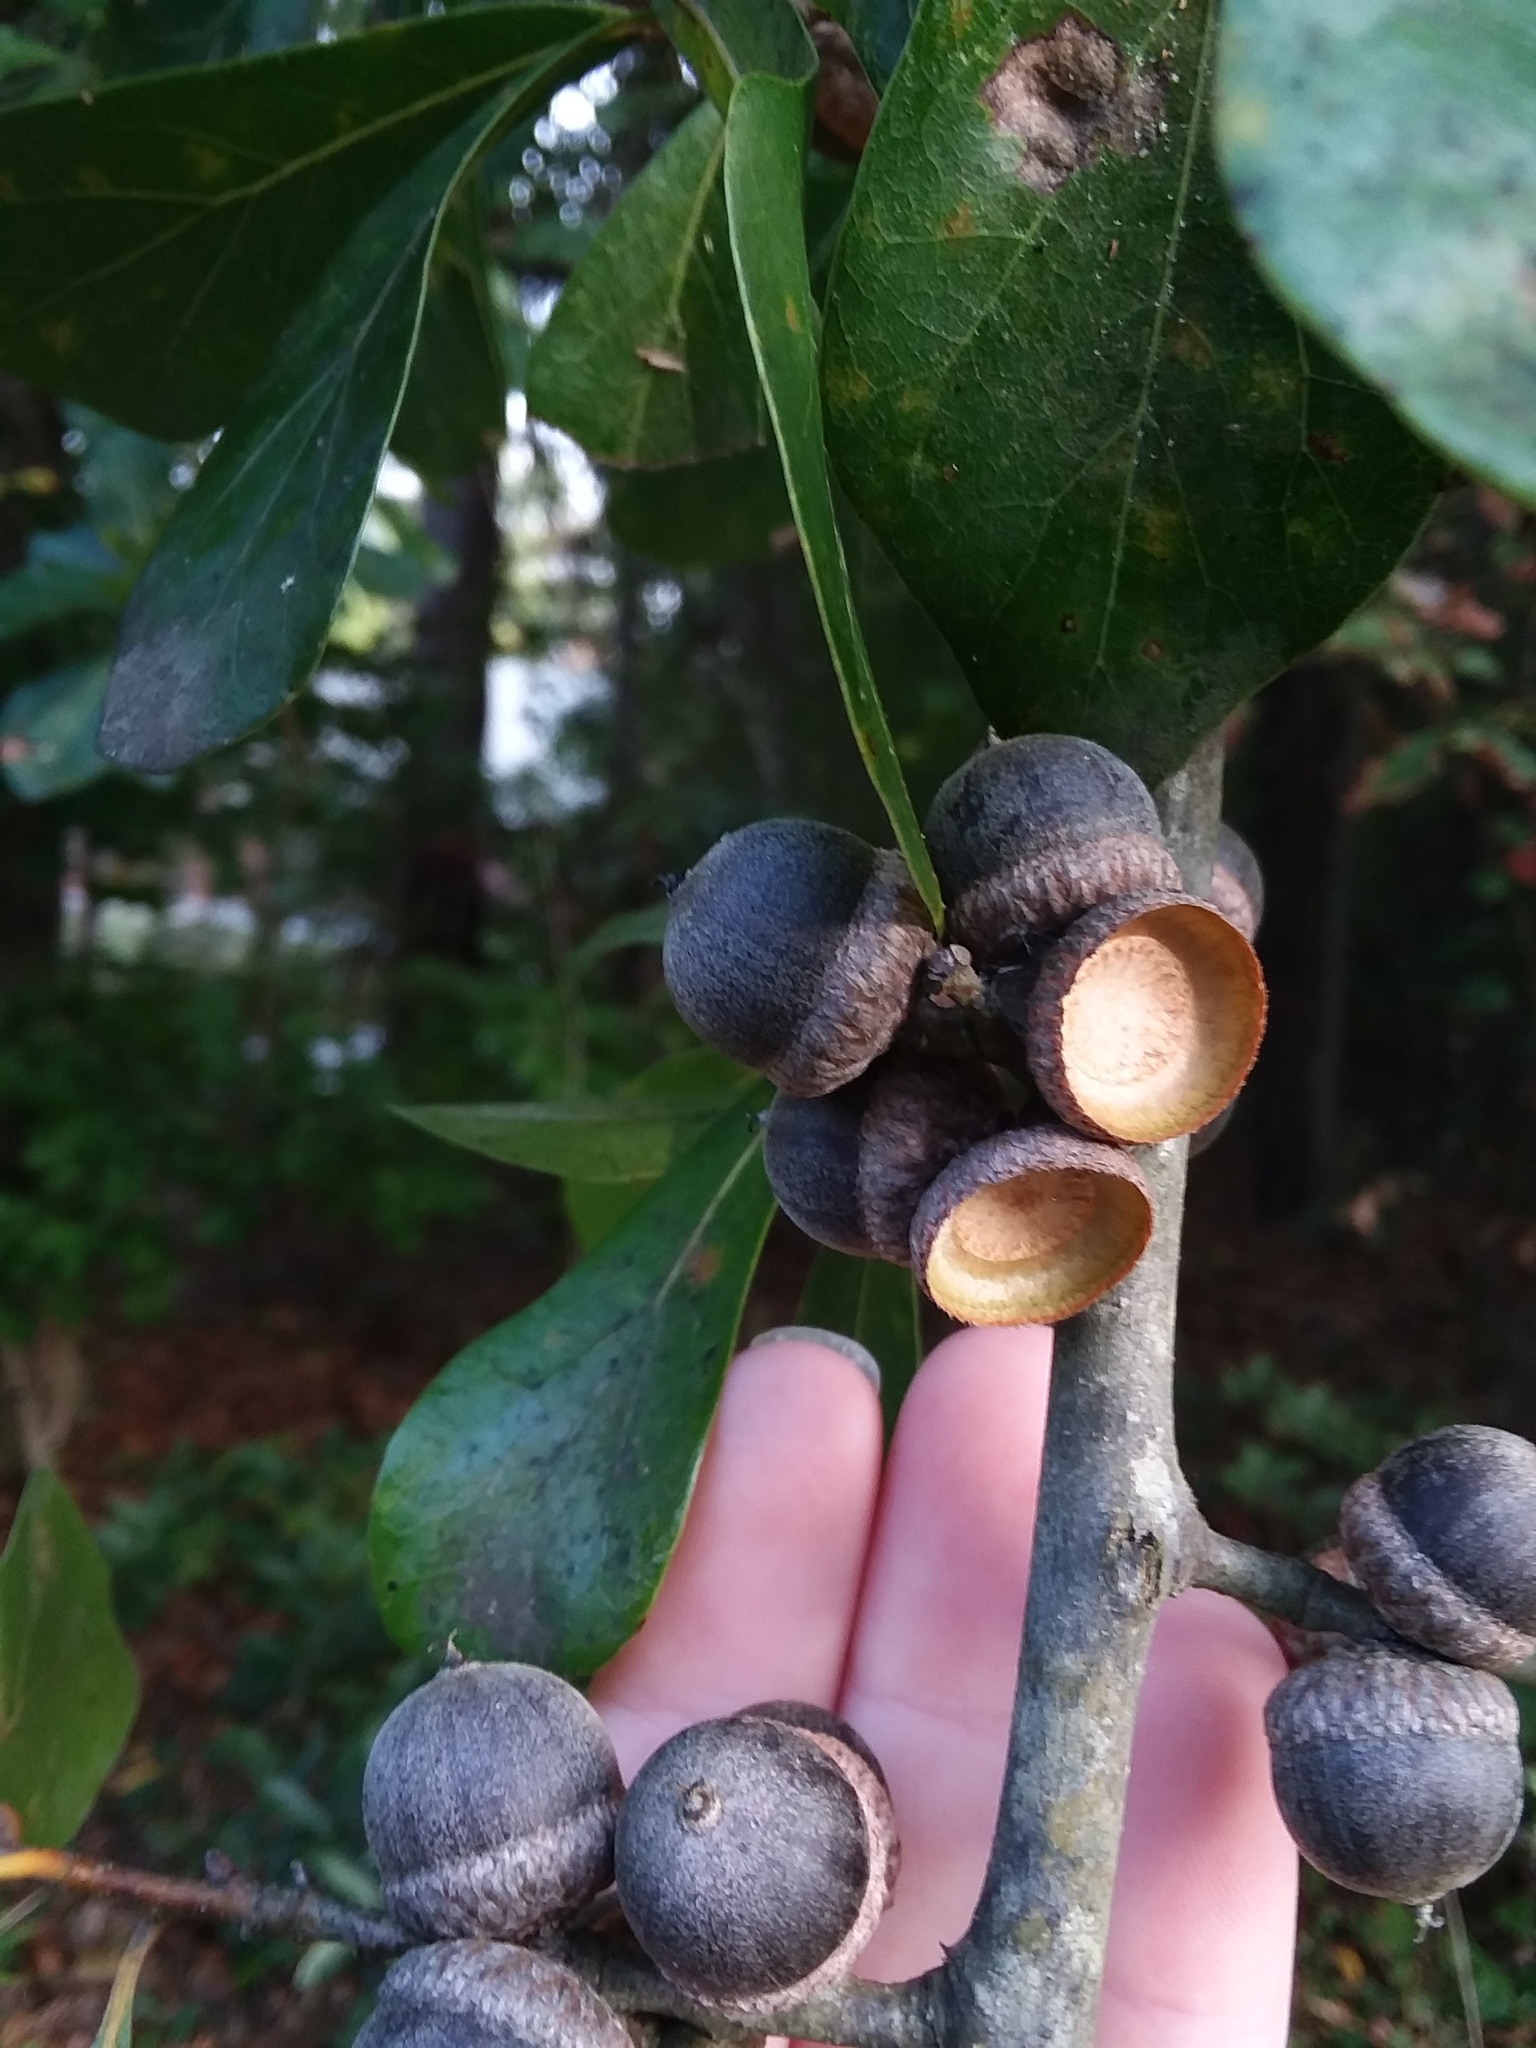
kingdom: Plantae
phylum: Tracheophyta
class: Magnoliopsida
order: Fagales
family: Fagaceae
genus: Quercus
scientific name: Quercus nigra
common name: Water oak
